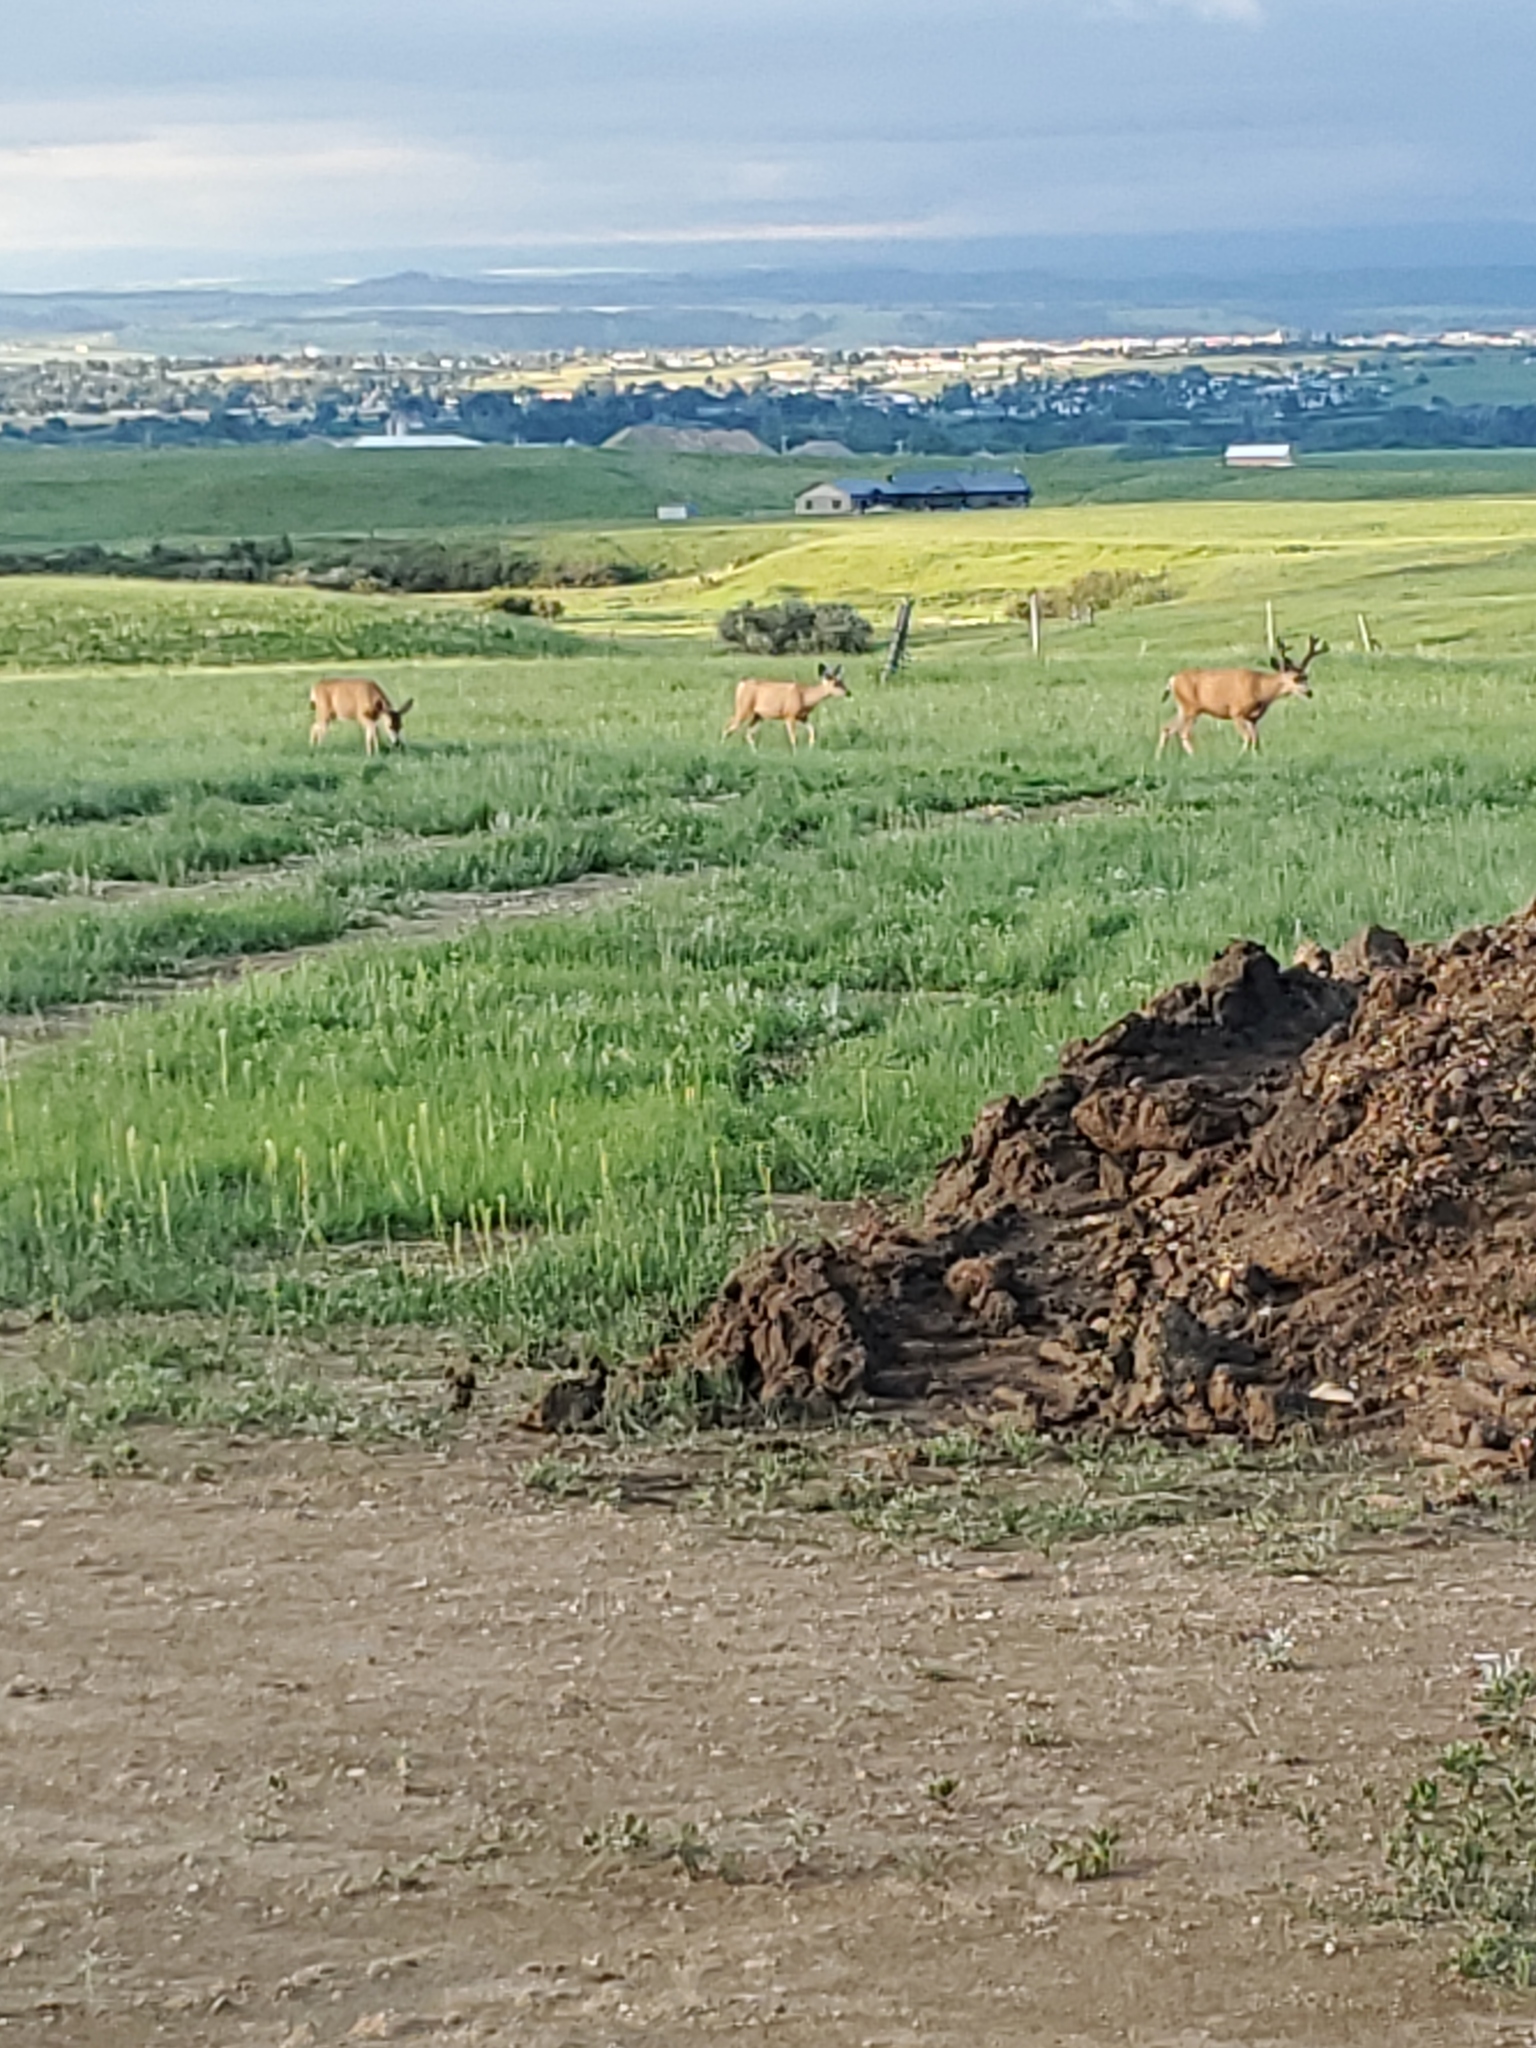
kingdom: Animalia
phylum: Chordata
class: Mammalia
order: Artiodactyla
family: Cervidae
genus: Odocoileus
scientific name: Odocoileus hemionus
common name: Mule deer
